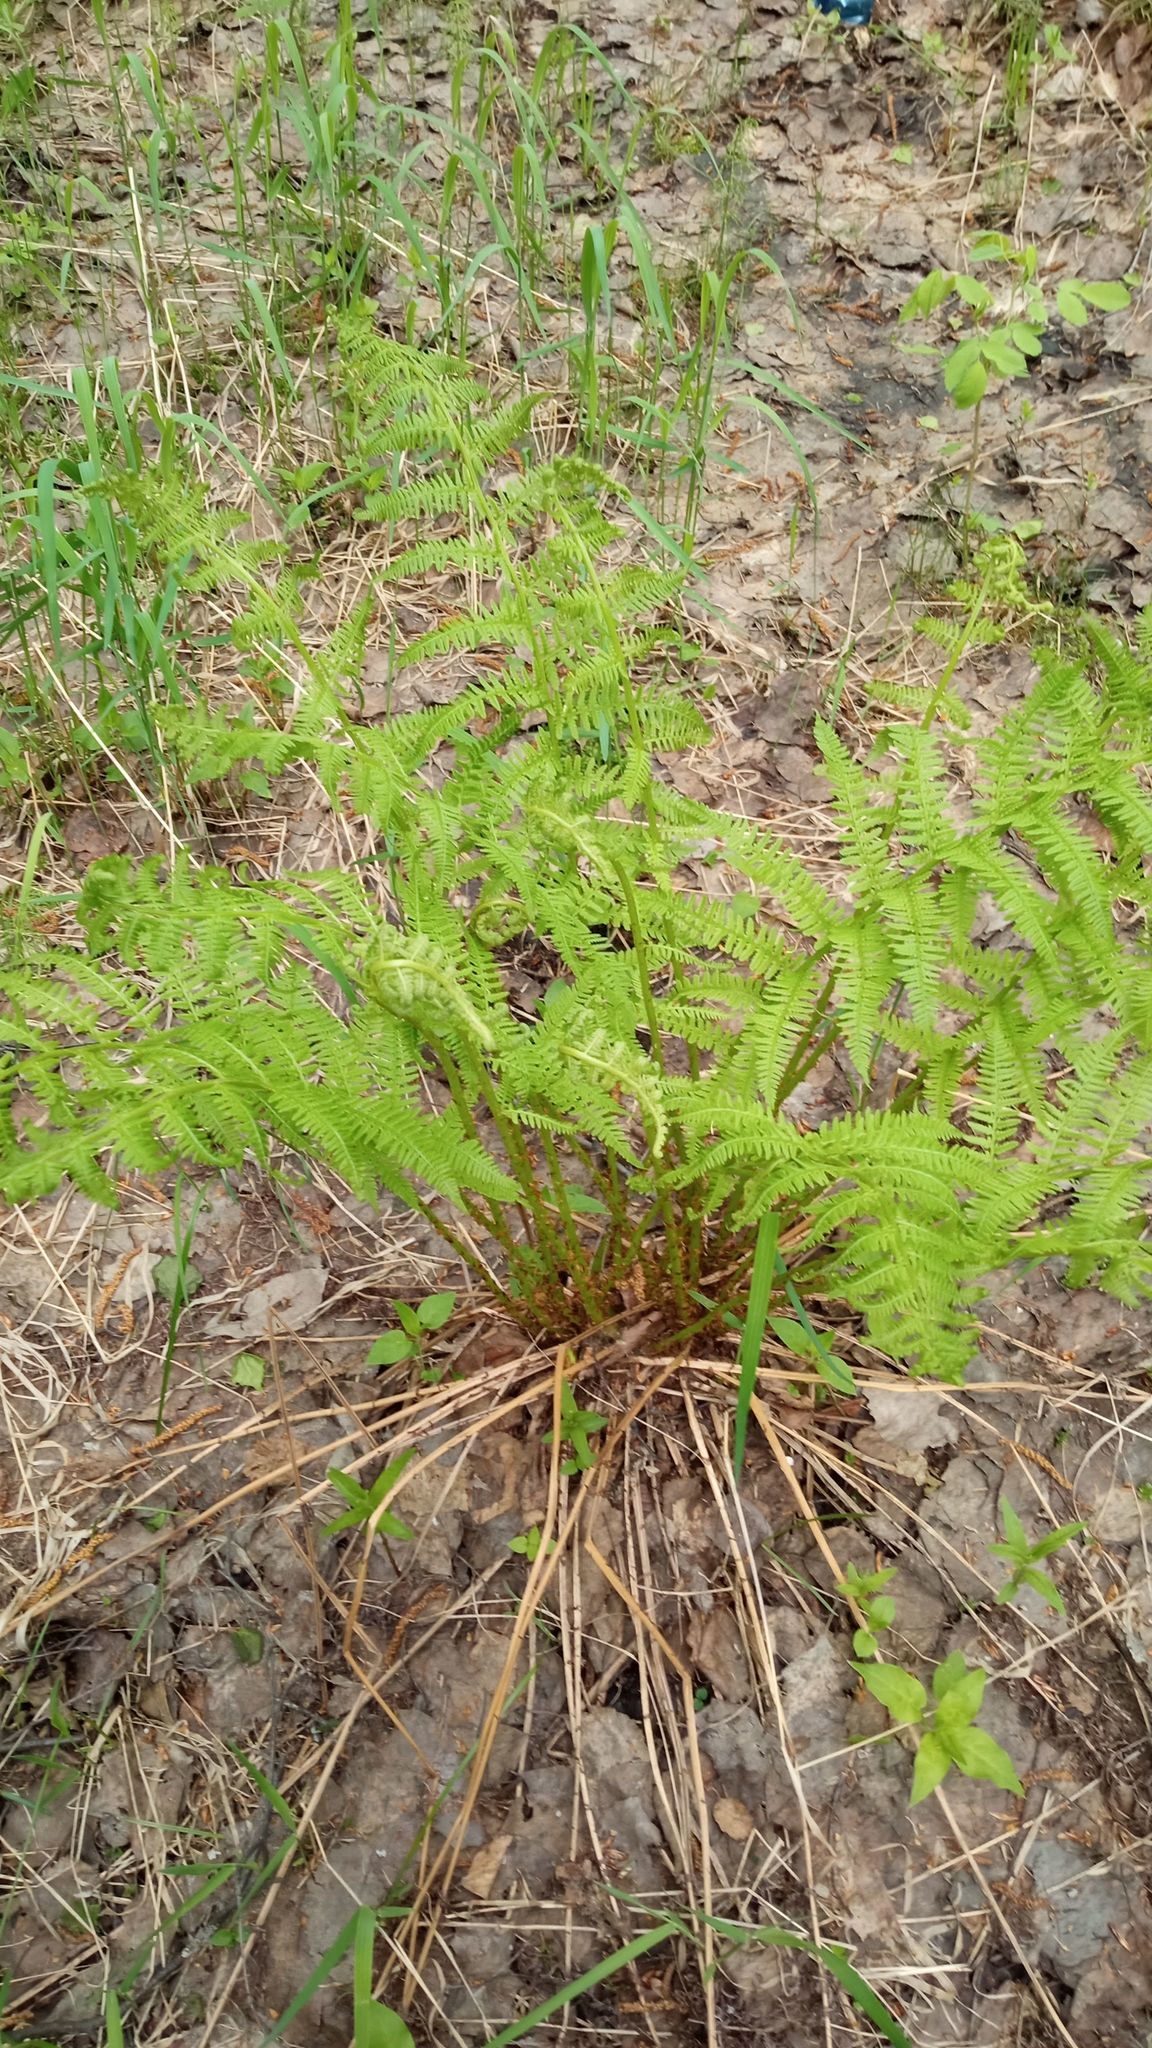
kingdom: Plantae
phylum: Tracheophyta
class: Polypodiopsida
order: Polypodiales
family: Athyriaceae
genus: Athyrium
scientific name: Athyrium filix-femina
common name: Lady fern
